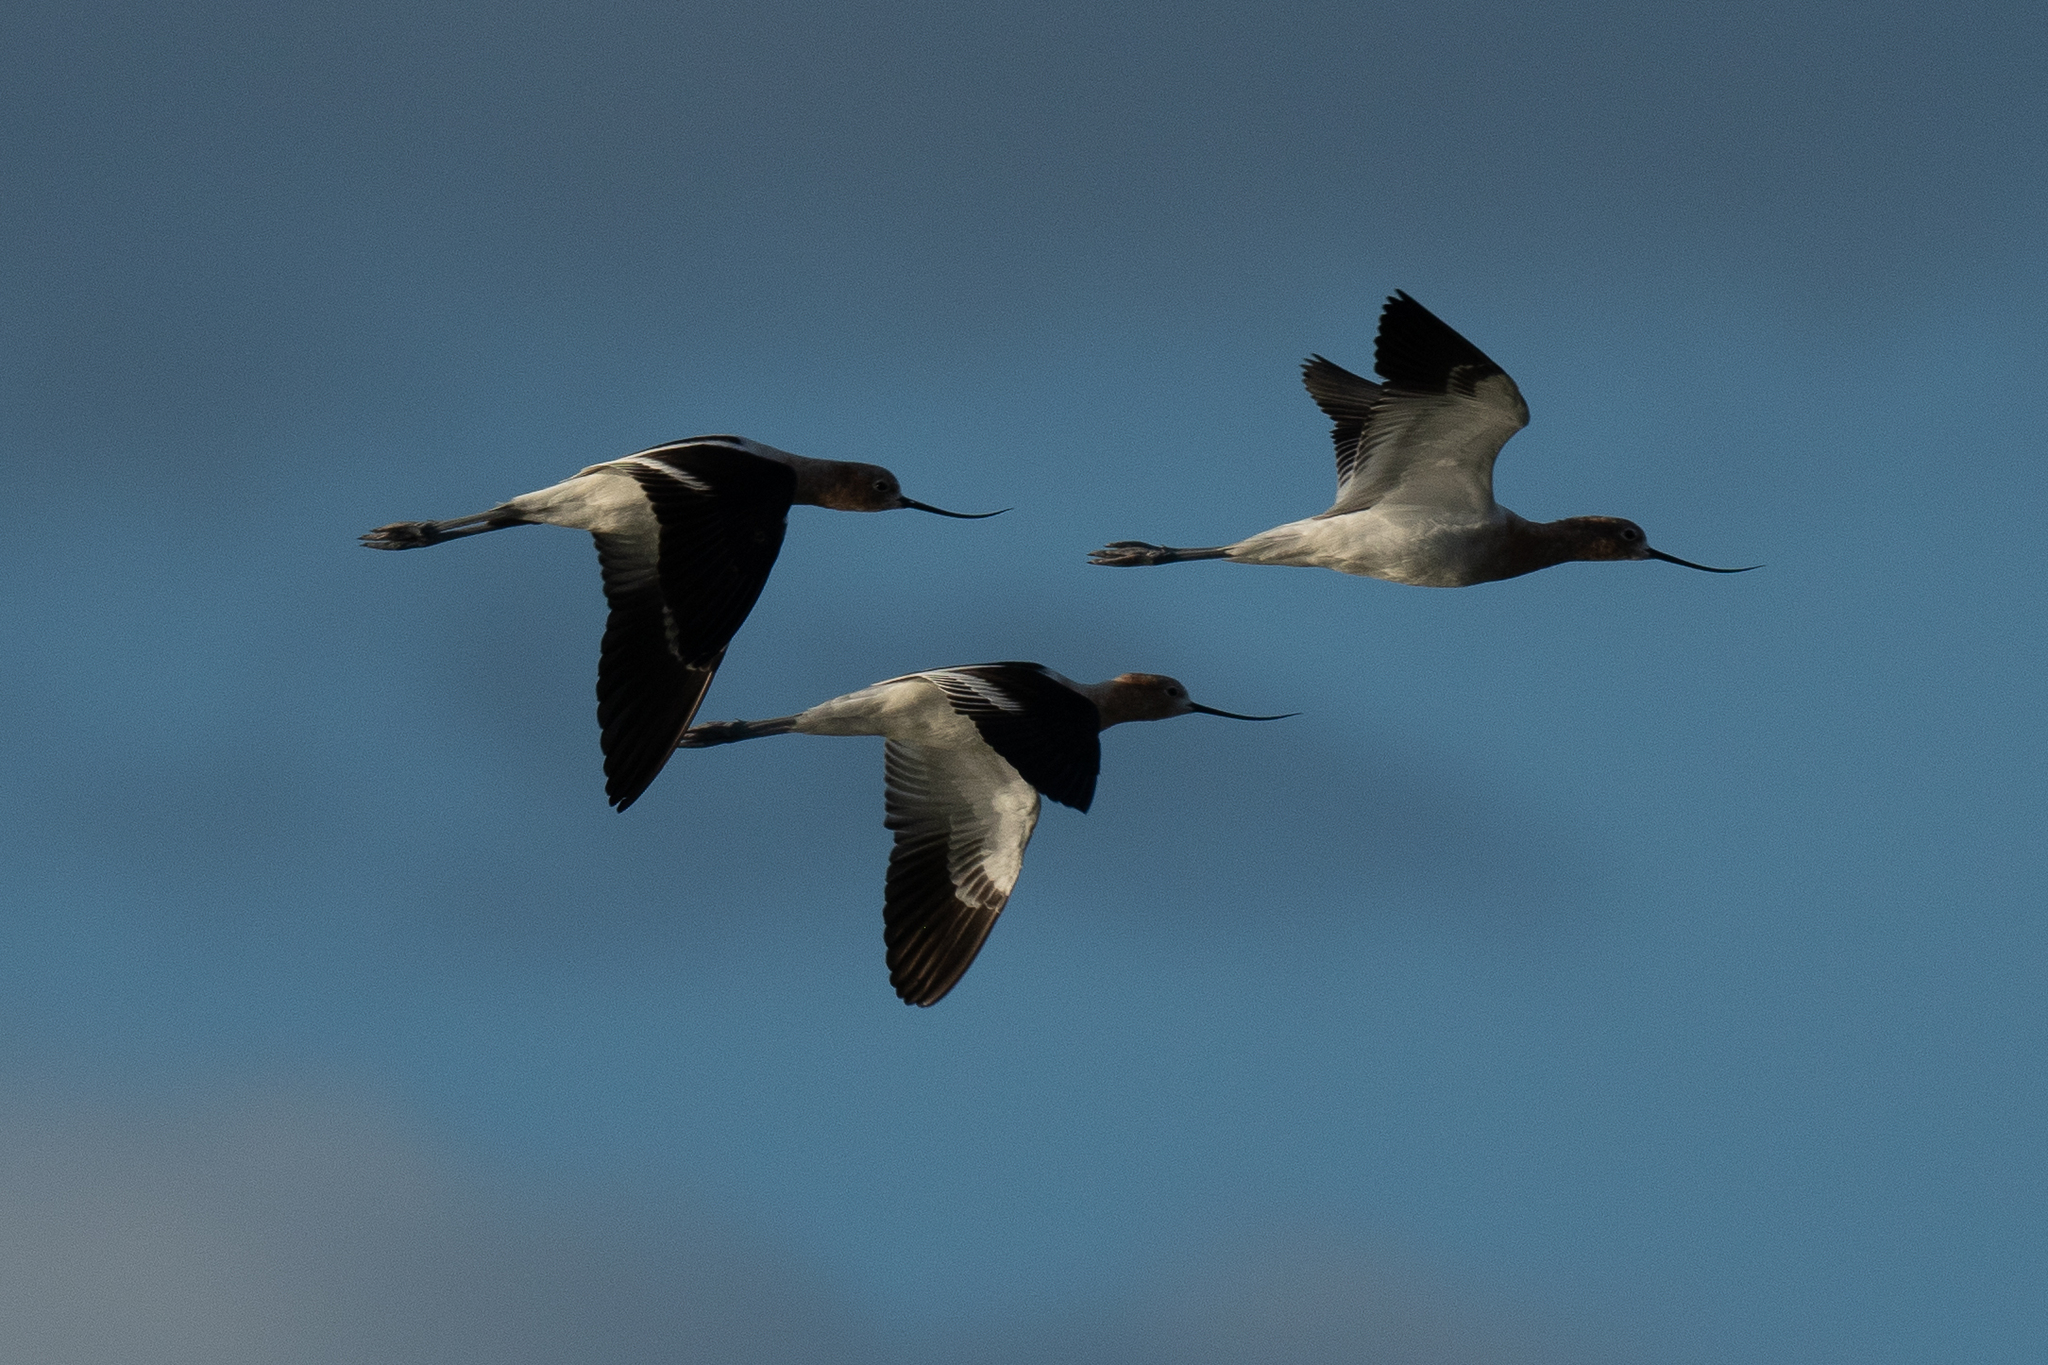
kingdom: Animalia
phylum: Chordata
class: Aves
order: Charadriiformes
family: Recurvirostridae
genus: Recurvirostra
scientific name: Recurvirostra americana
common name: American avocet
